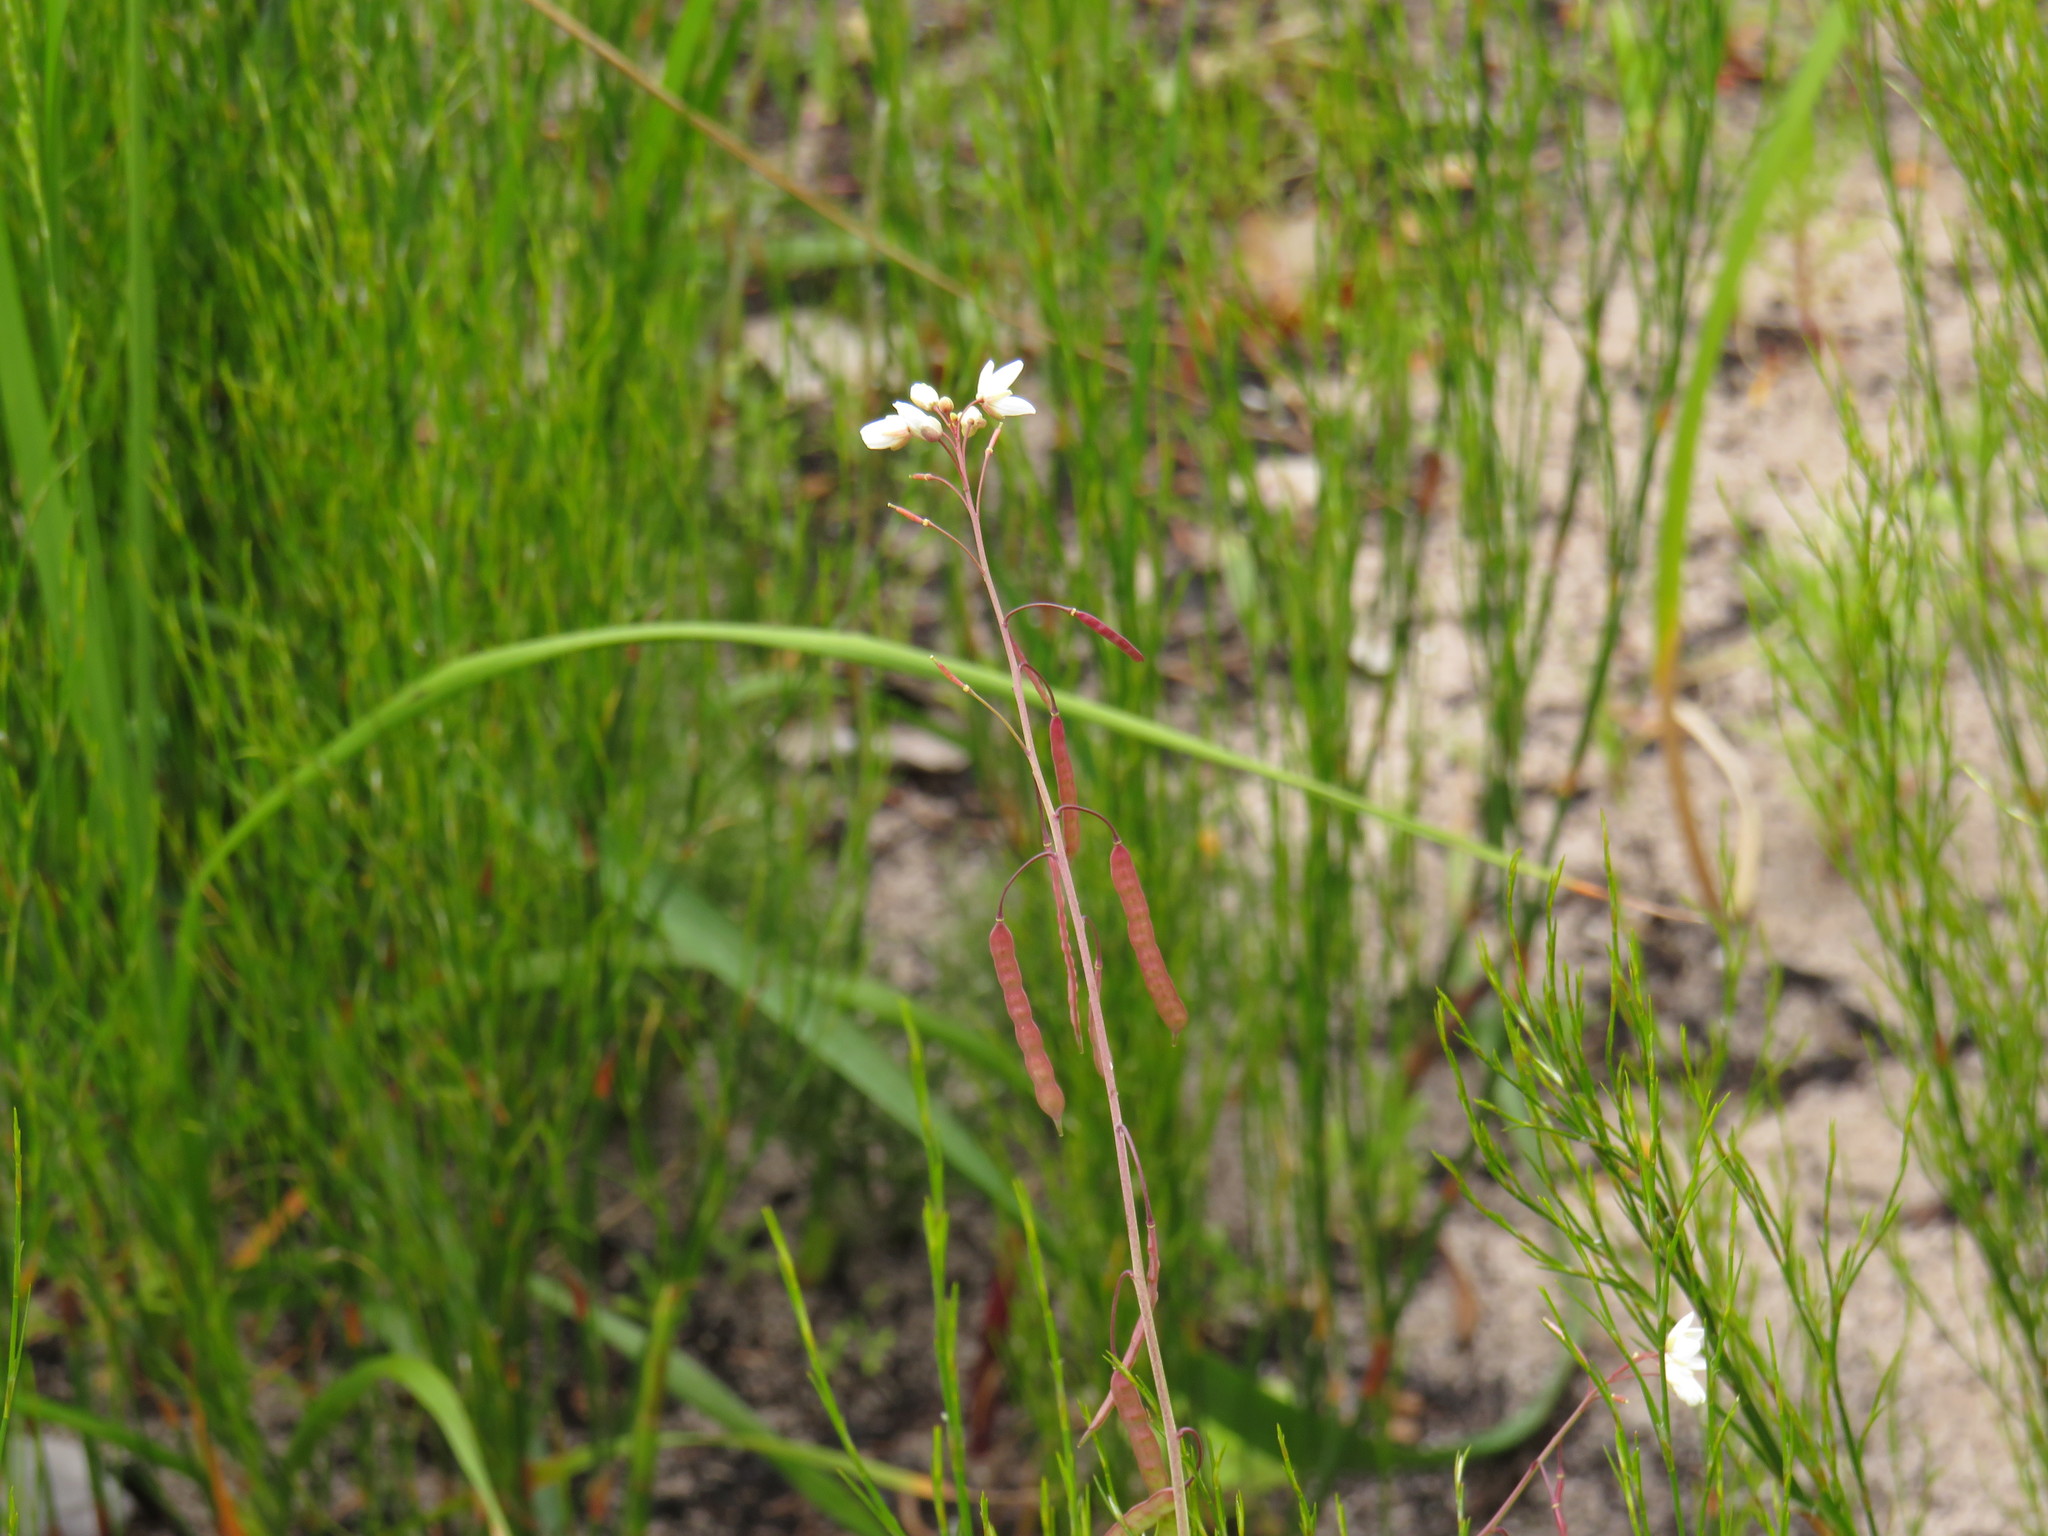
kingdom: Plantae
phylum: Tracheophyta
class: Magnoliopsida
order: Brassicales
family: Brassicaceae
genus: Heliophila
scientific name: Heliophila meyeri
